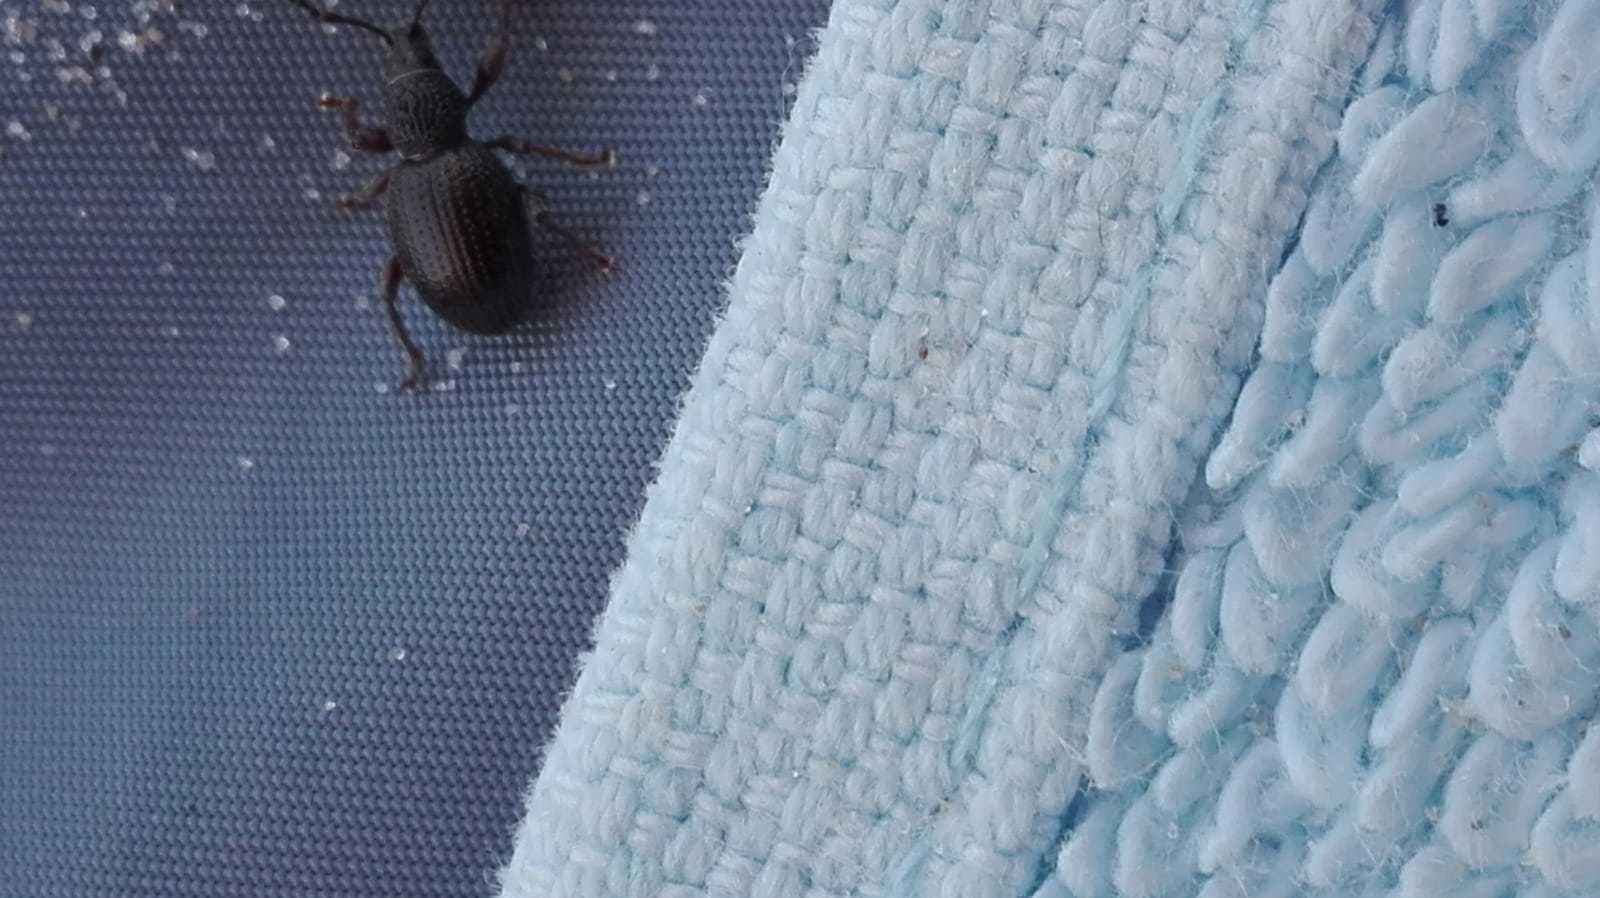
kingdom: Animalia
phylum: Arthropoda
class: Insecta
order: Coleoptera
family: Curculionidae
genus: Otiorhynchus
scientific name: Otiorhynchus ovatus
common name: Strawberry root weevil
